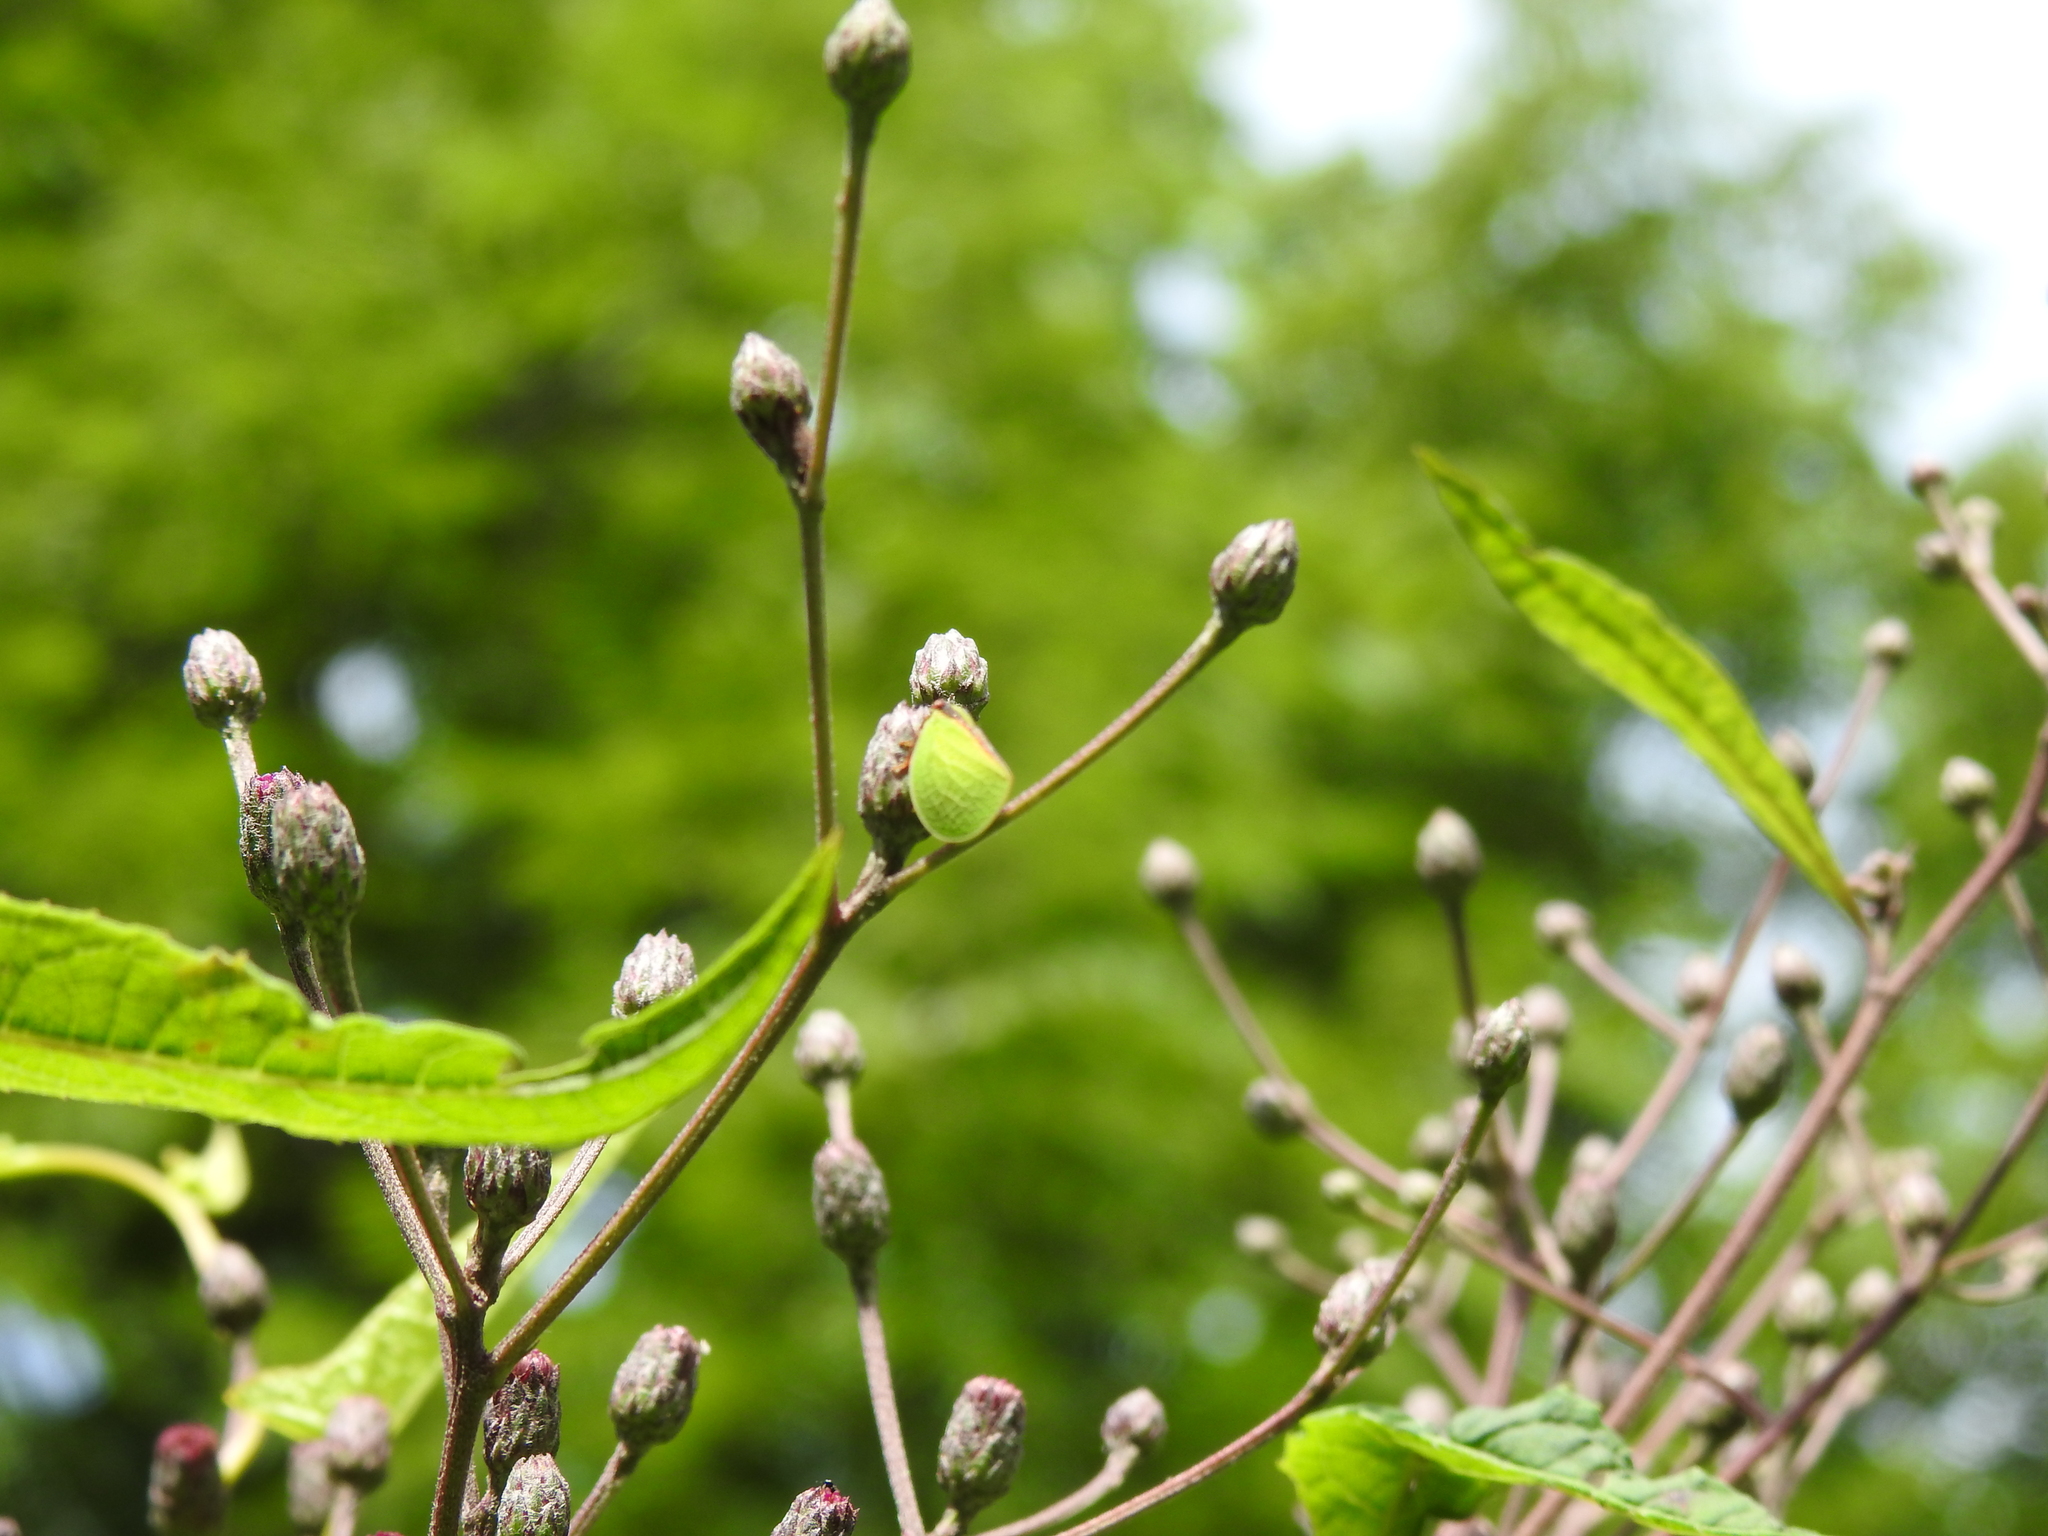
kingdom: Animalia
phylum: Arthropoda
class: Insecta
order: Hemiptera
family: Acanaloniidae
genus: Acanalonia
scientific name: Acanalonia bivittata
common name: Two-striped planthopper
